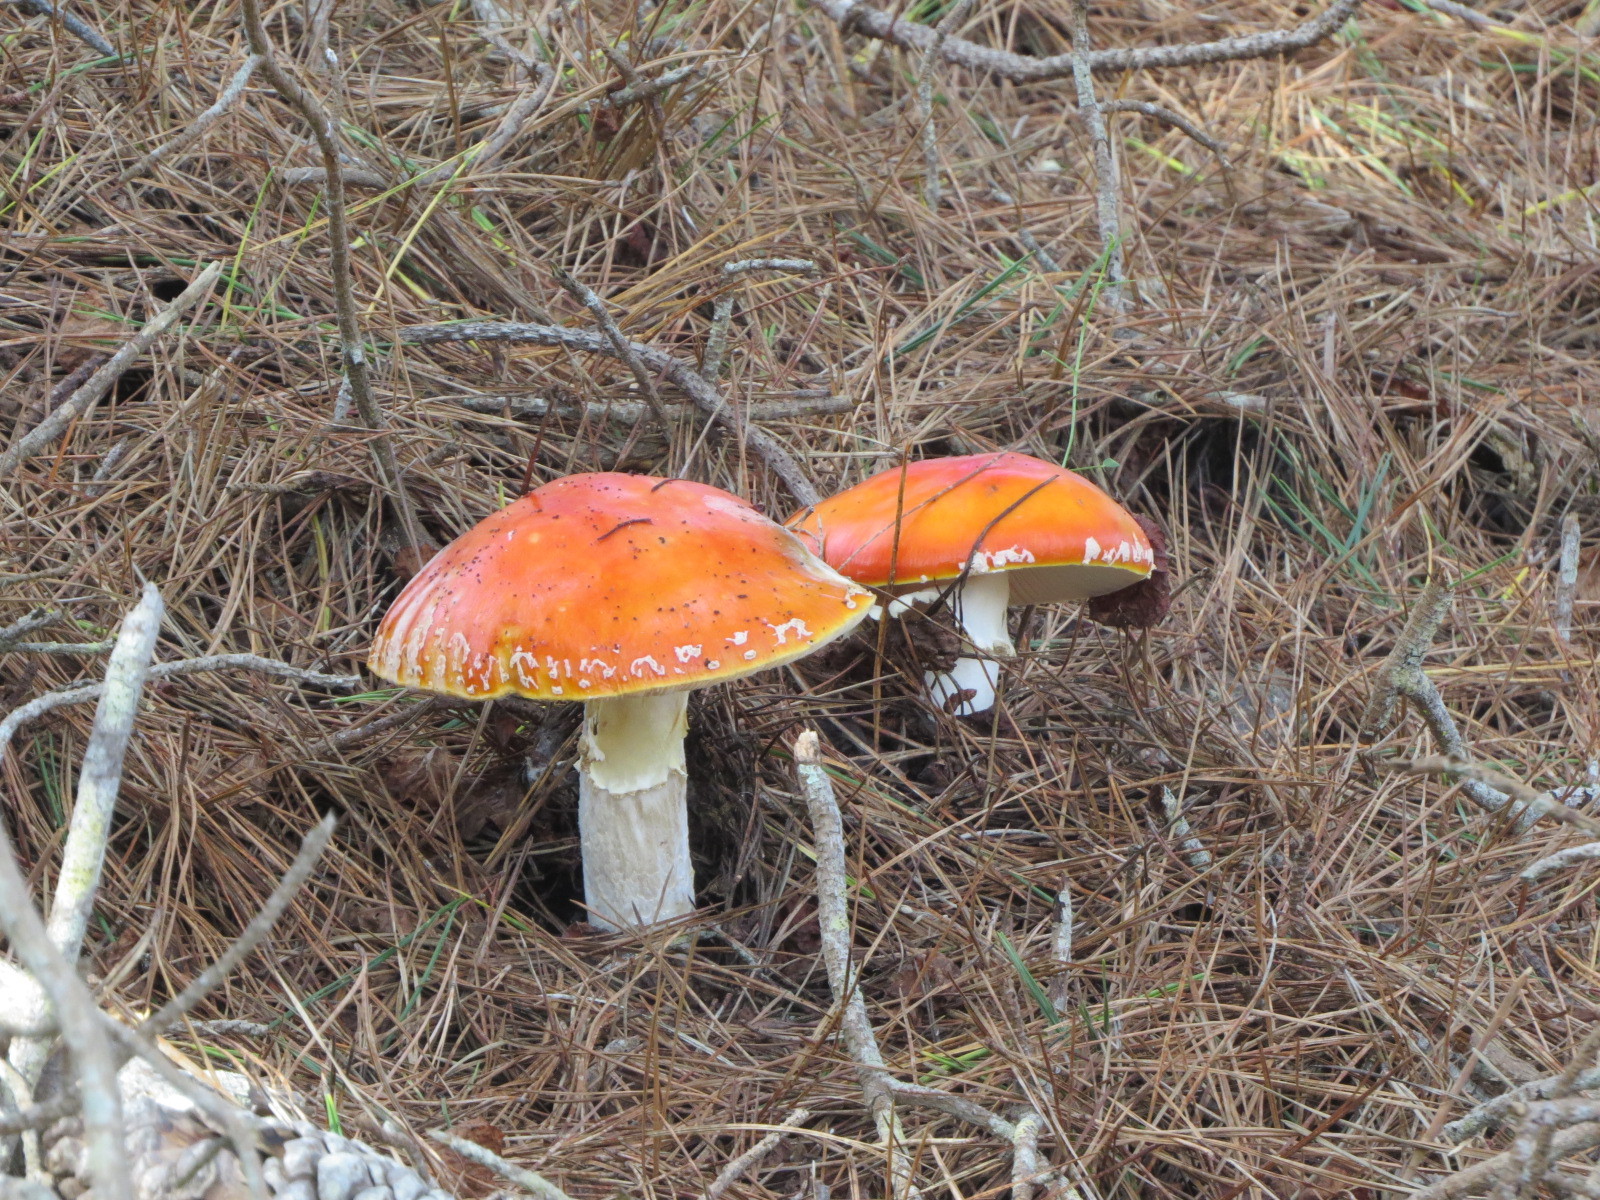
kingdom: Fungi
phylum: Basidiomycota
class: Agaricomycetes
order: Agaricales
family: Amanitaceae
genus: Amanita
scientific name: Amanita muscaria
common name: Fly agaric
